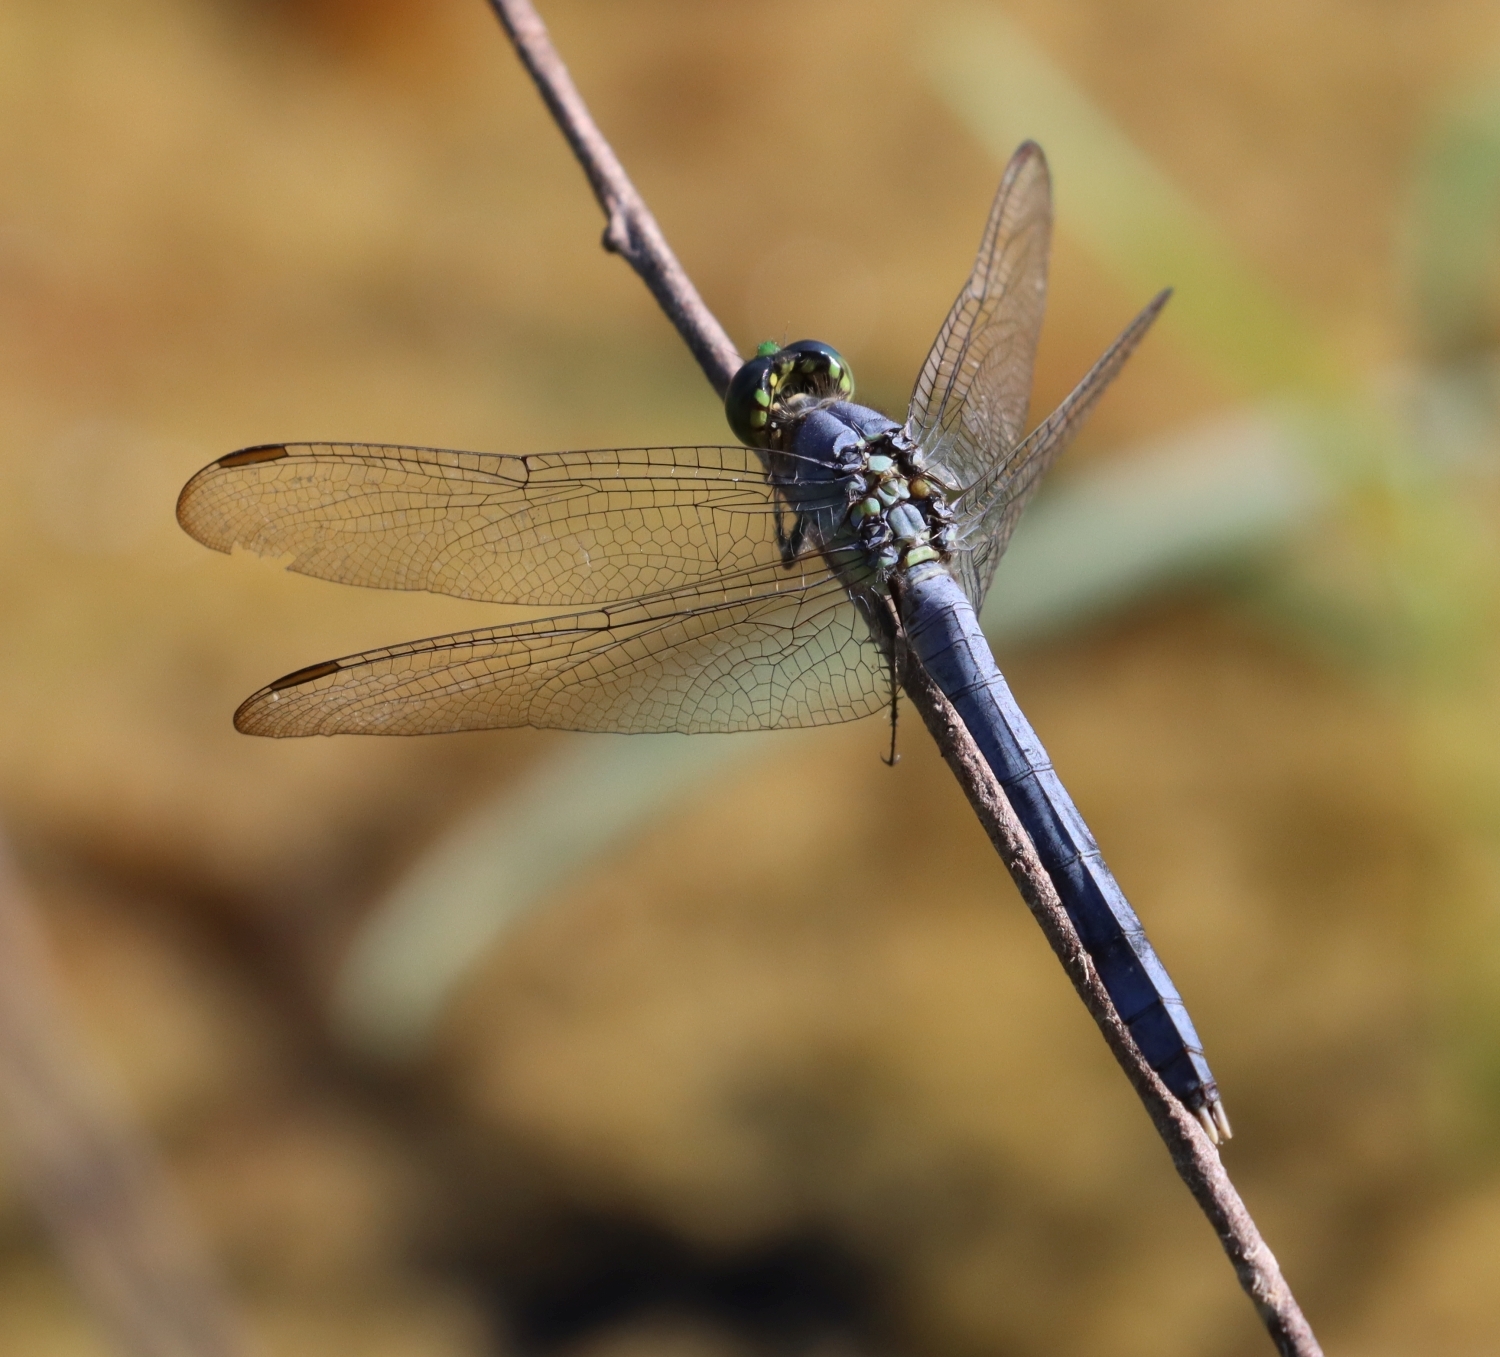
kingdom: Animalia
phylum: Arthropoda
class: Insecta
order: Odonata
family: Libellulidae
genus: Erythemis
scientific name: Erythemis simplicicollis
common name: Eastern pondhawk
